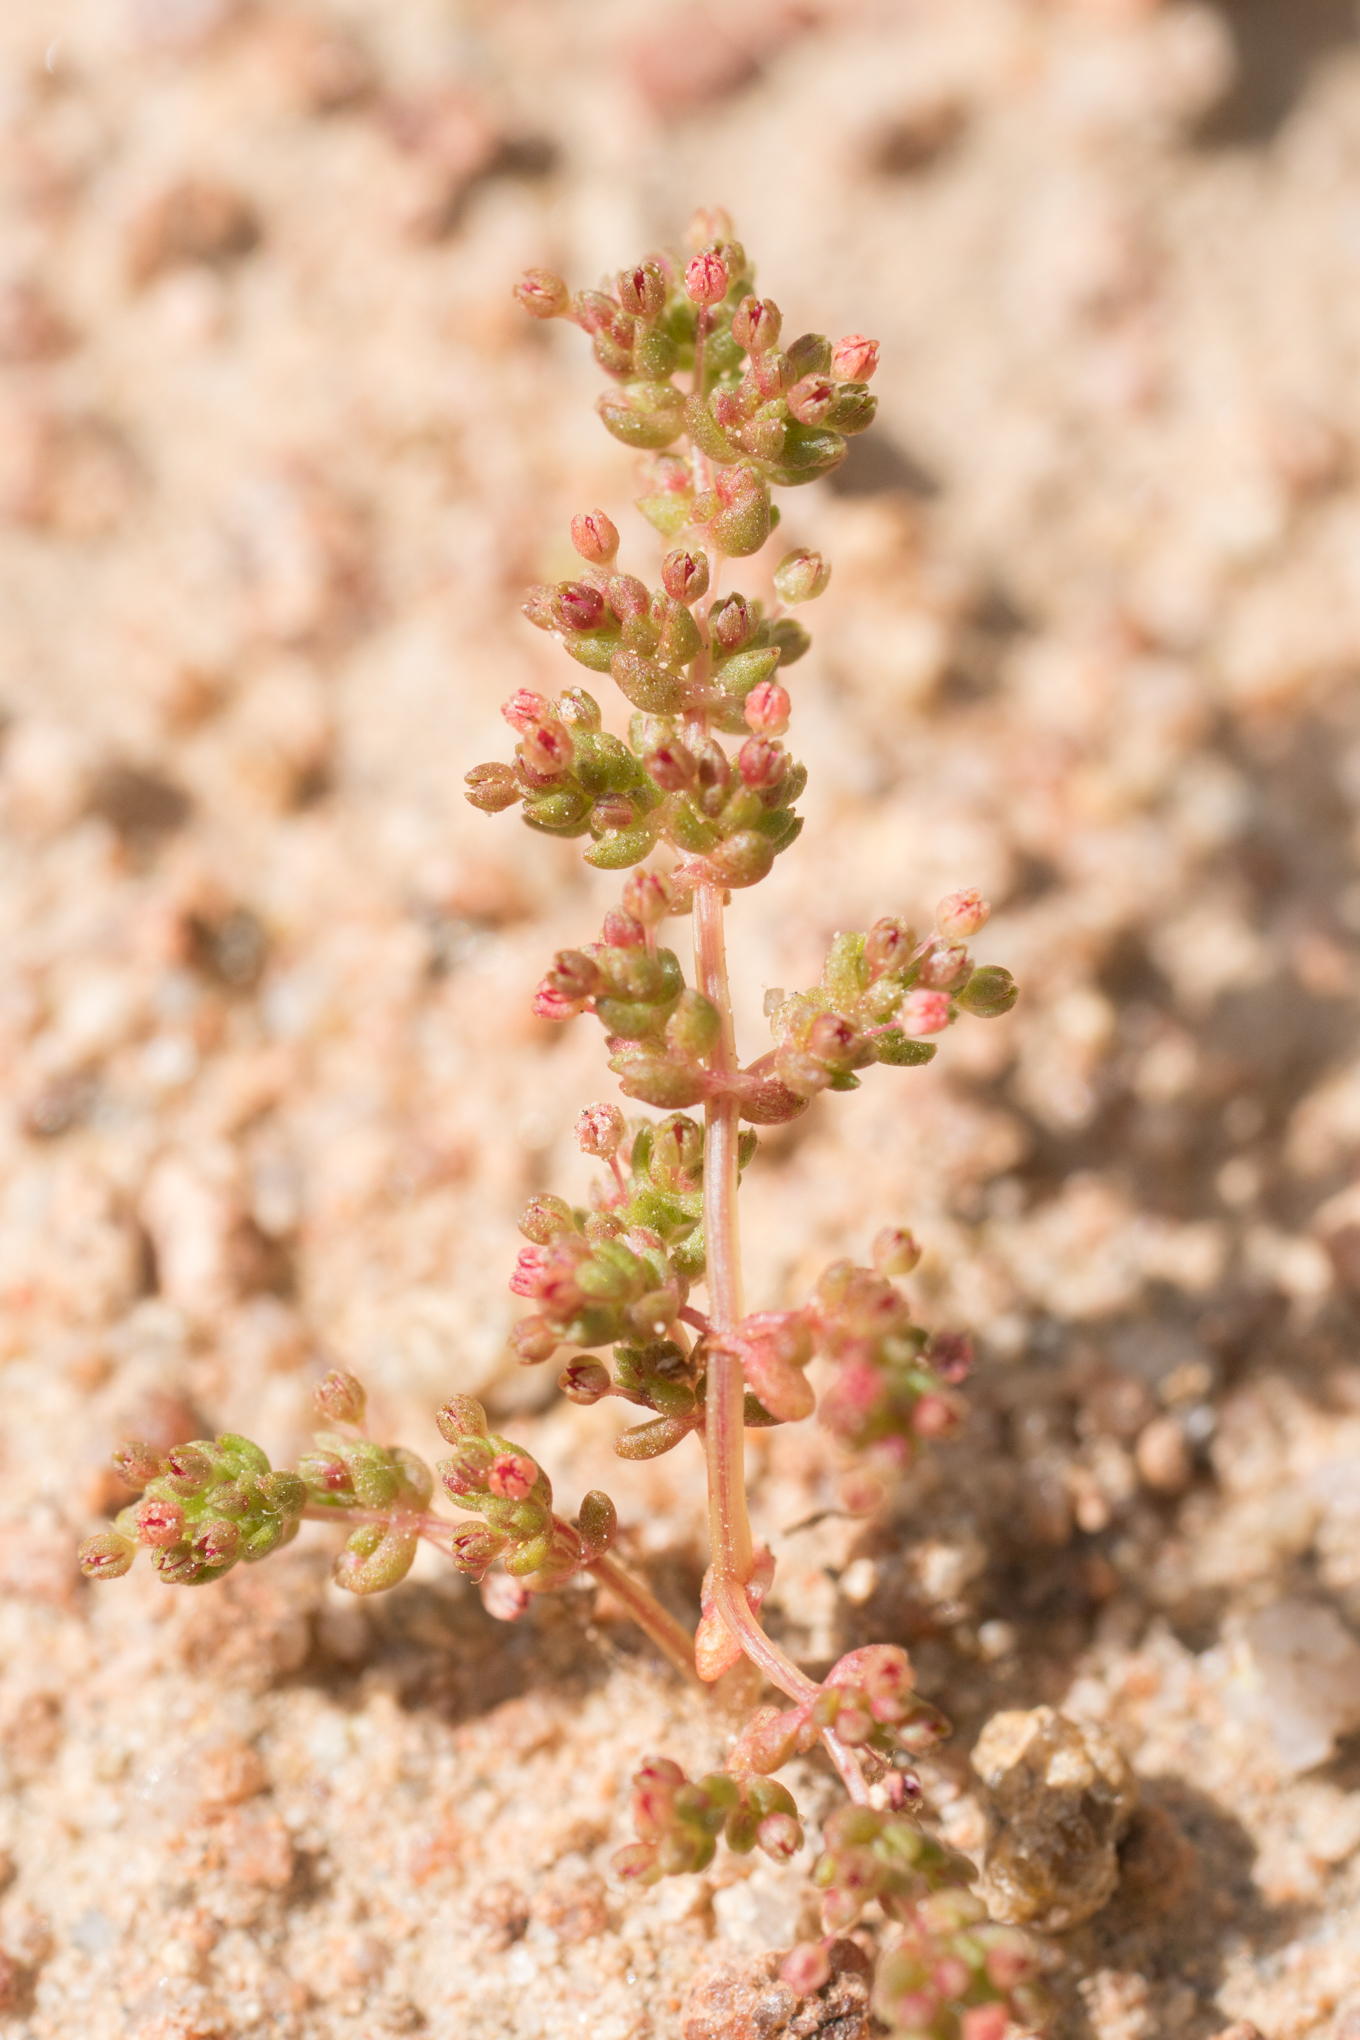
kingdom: Plantae
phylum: Tracheophyta
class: Magnoliopsida
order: Saxifragales
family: Crassulaceae
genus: Crassula
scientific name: Crassula connata
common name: Erect pygmyweed
